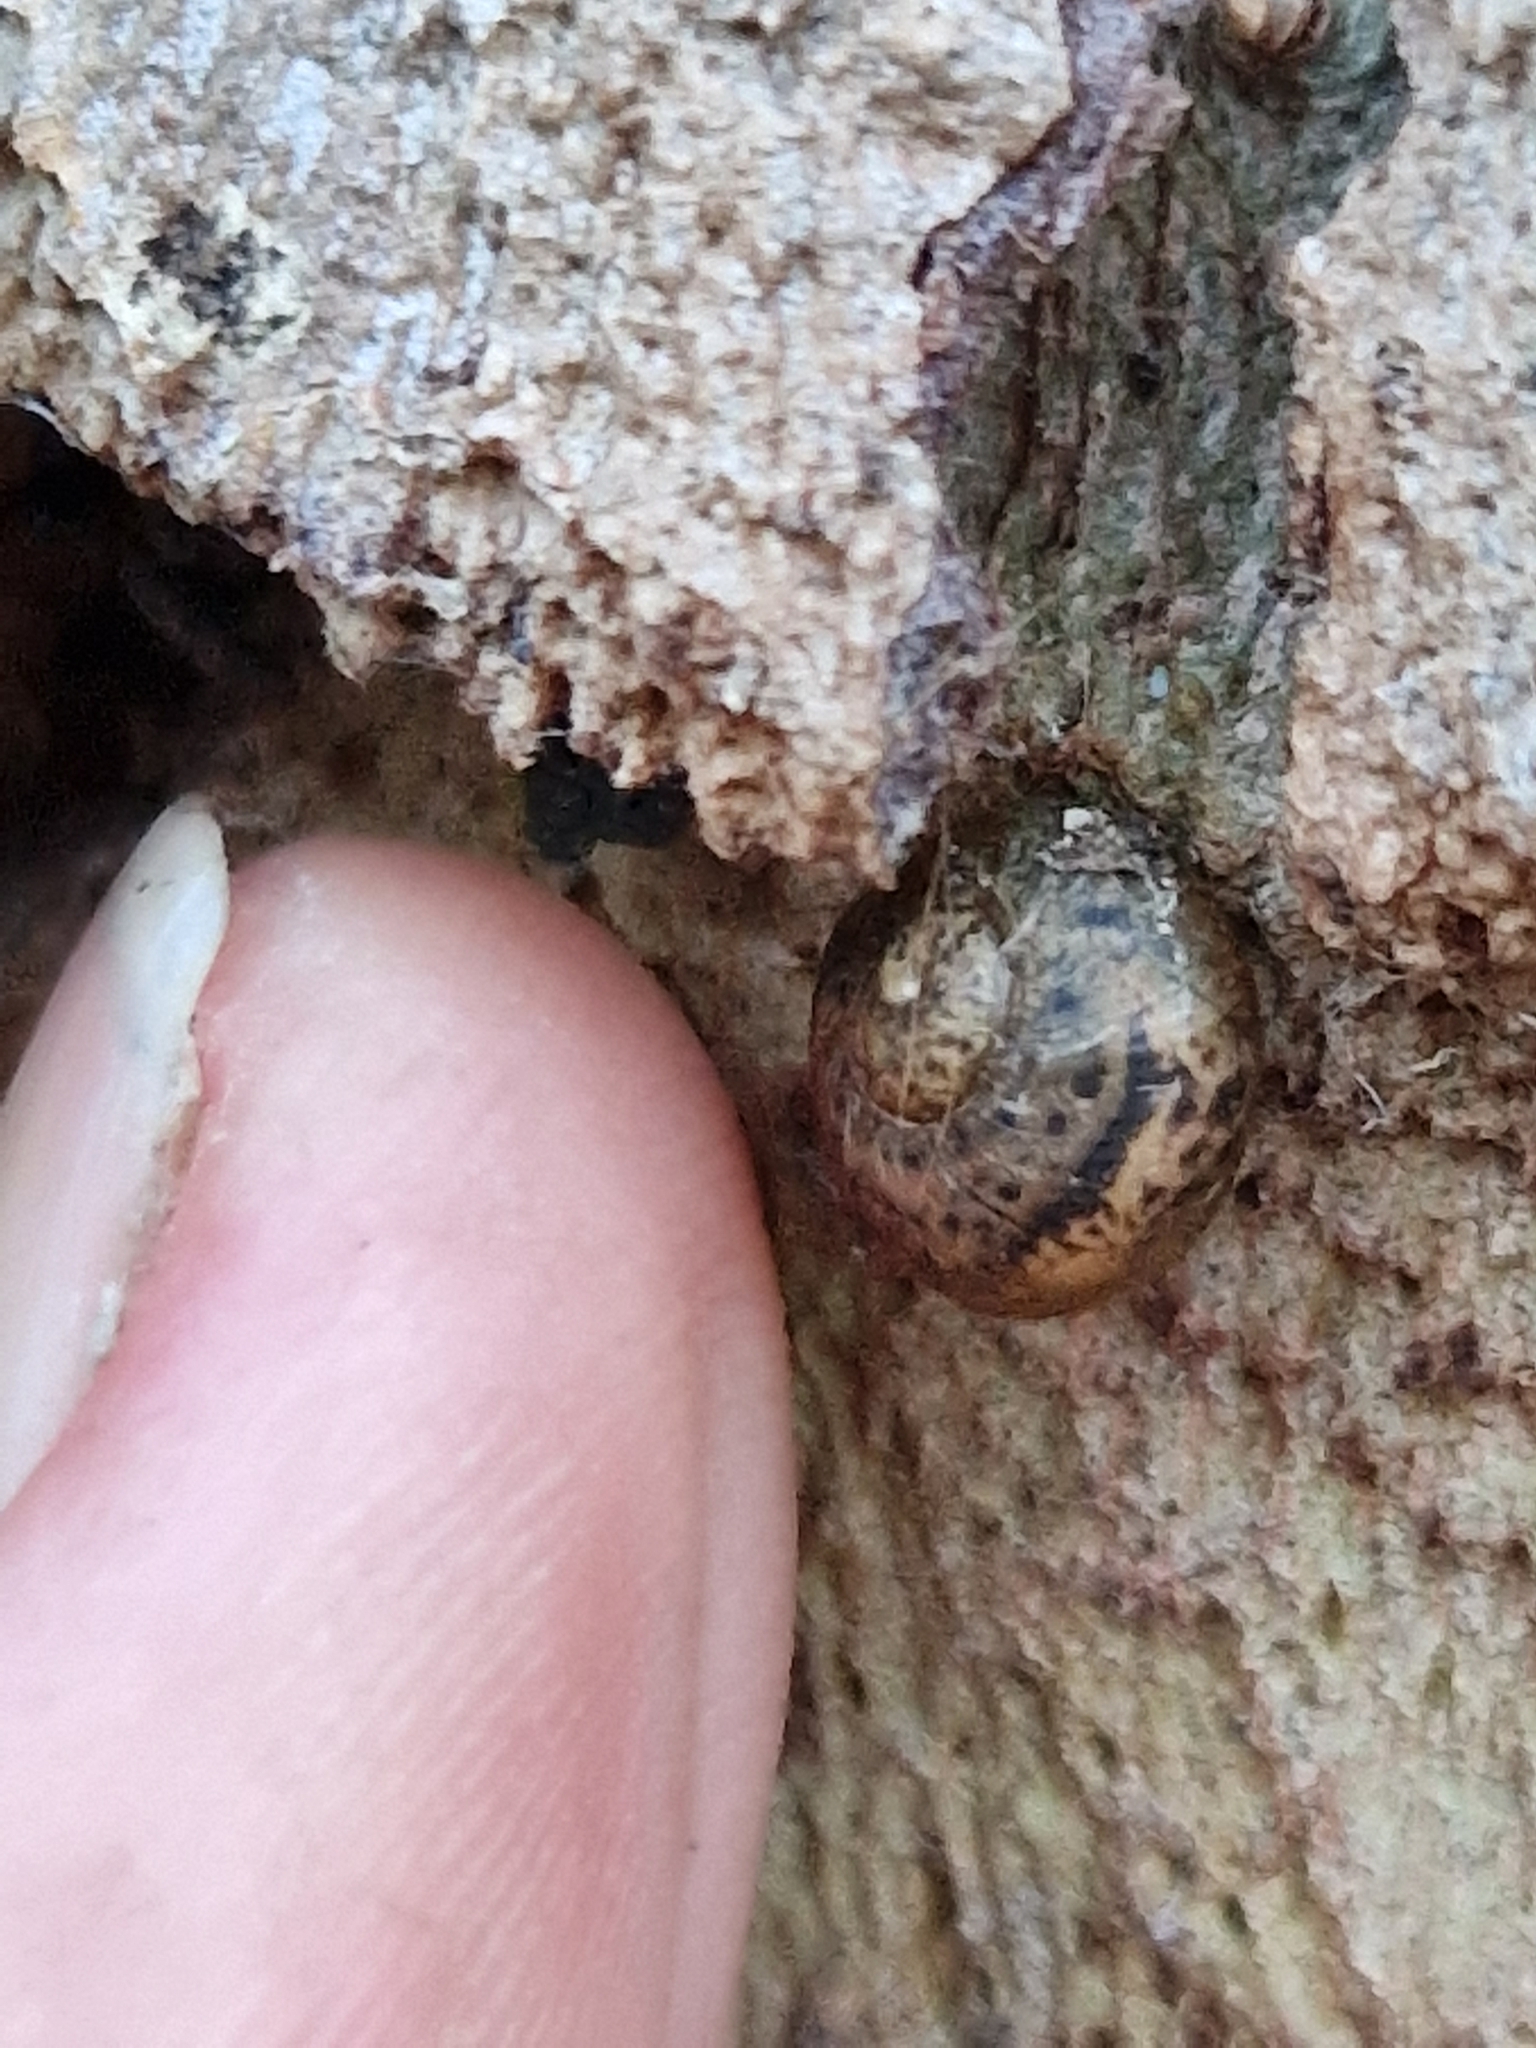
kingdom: Animalia
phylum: Mollusca
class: Gastropoda
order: Stylommatophora
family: Helicidae
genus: Cornu
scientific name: Cornu aspersum
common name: Brown garden snail
